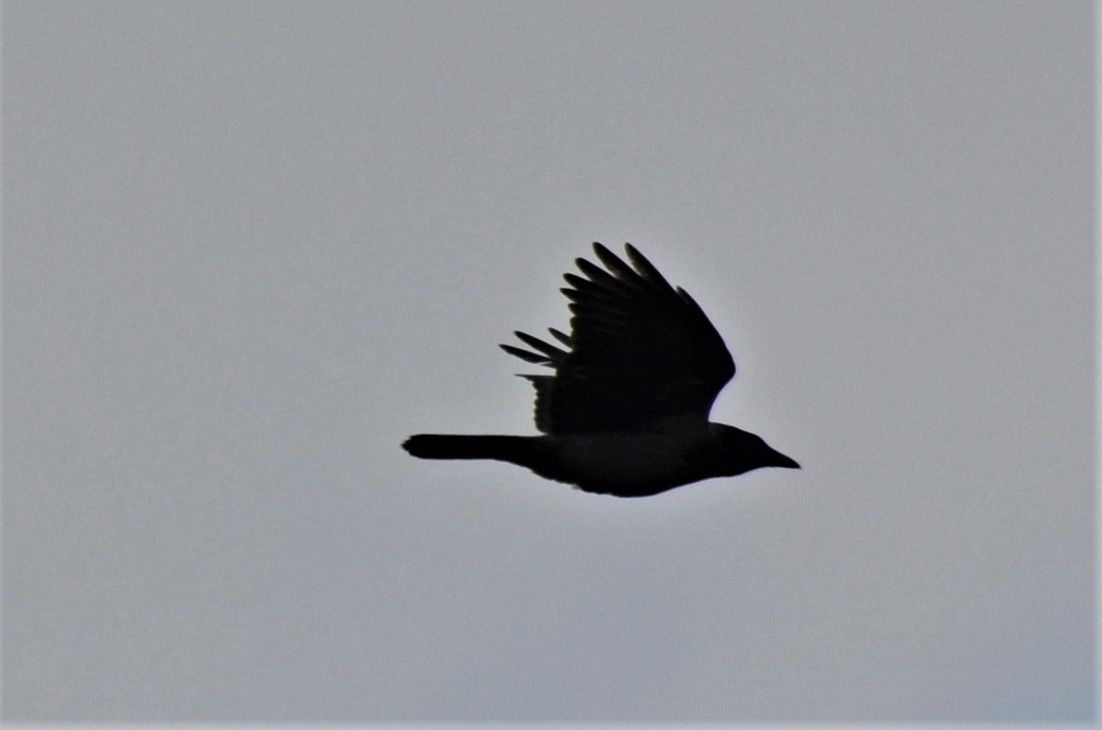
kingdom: Animalia
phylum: Chordata
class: Aves
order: Passeriformes
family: Corvidae
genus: Corvus
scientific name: Corvus corone
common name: Carrion crow
